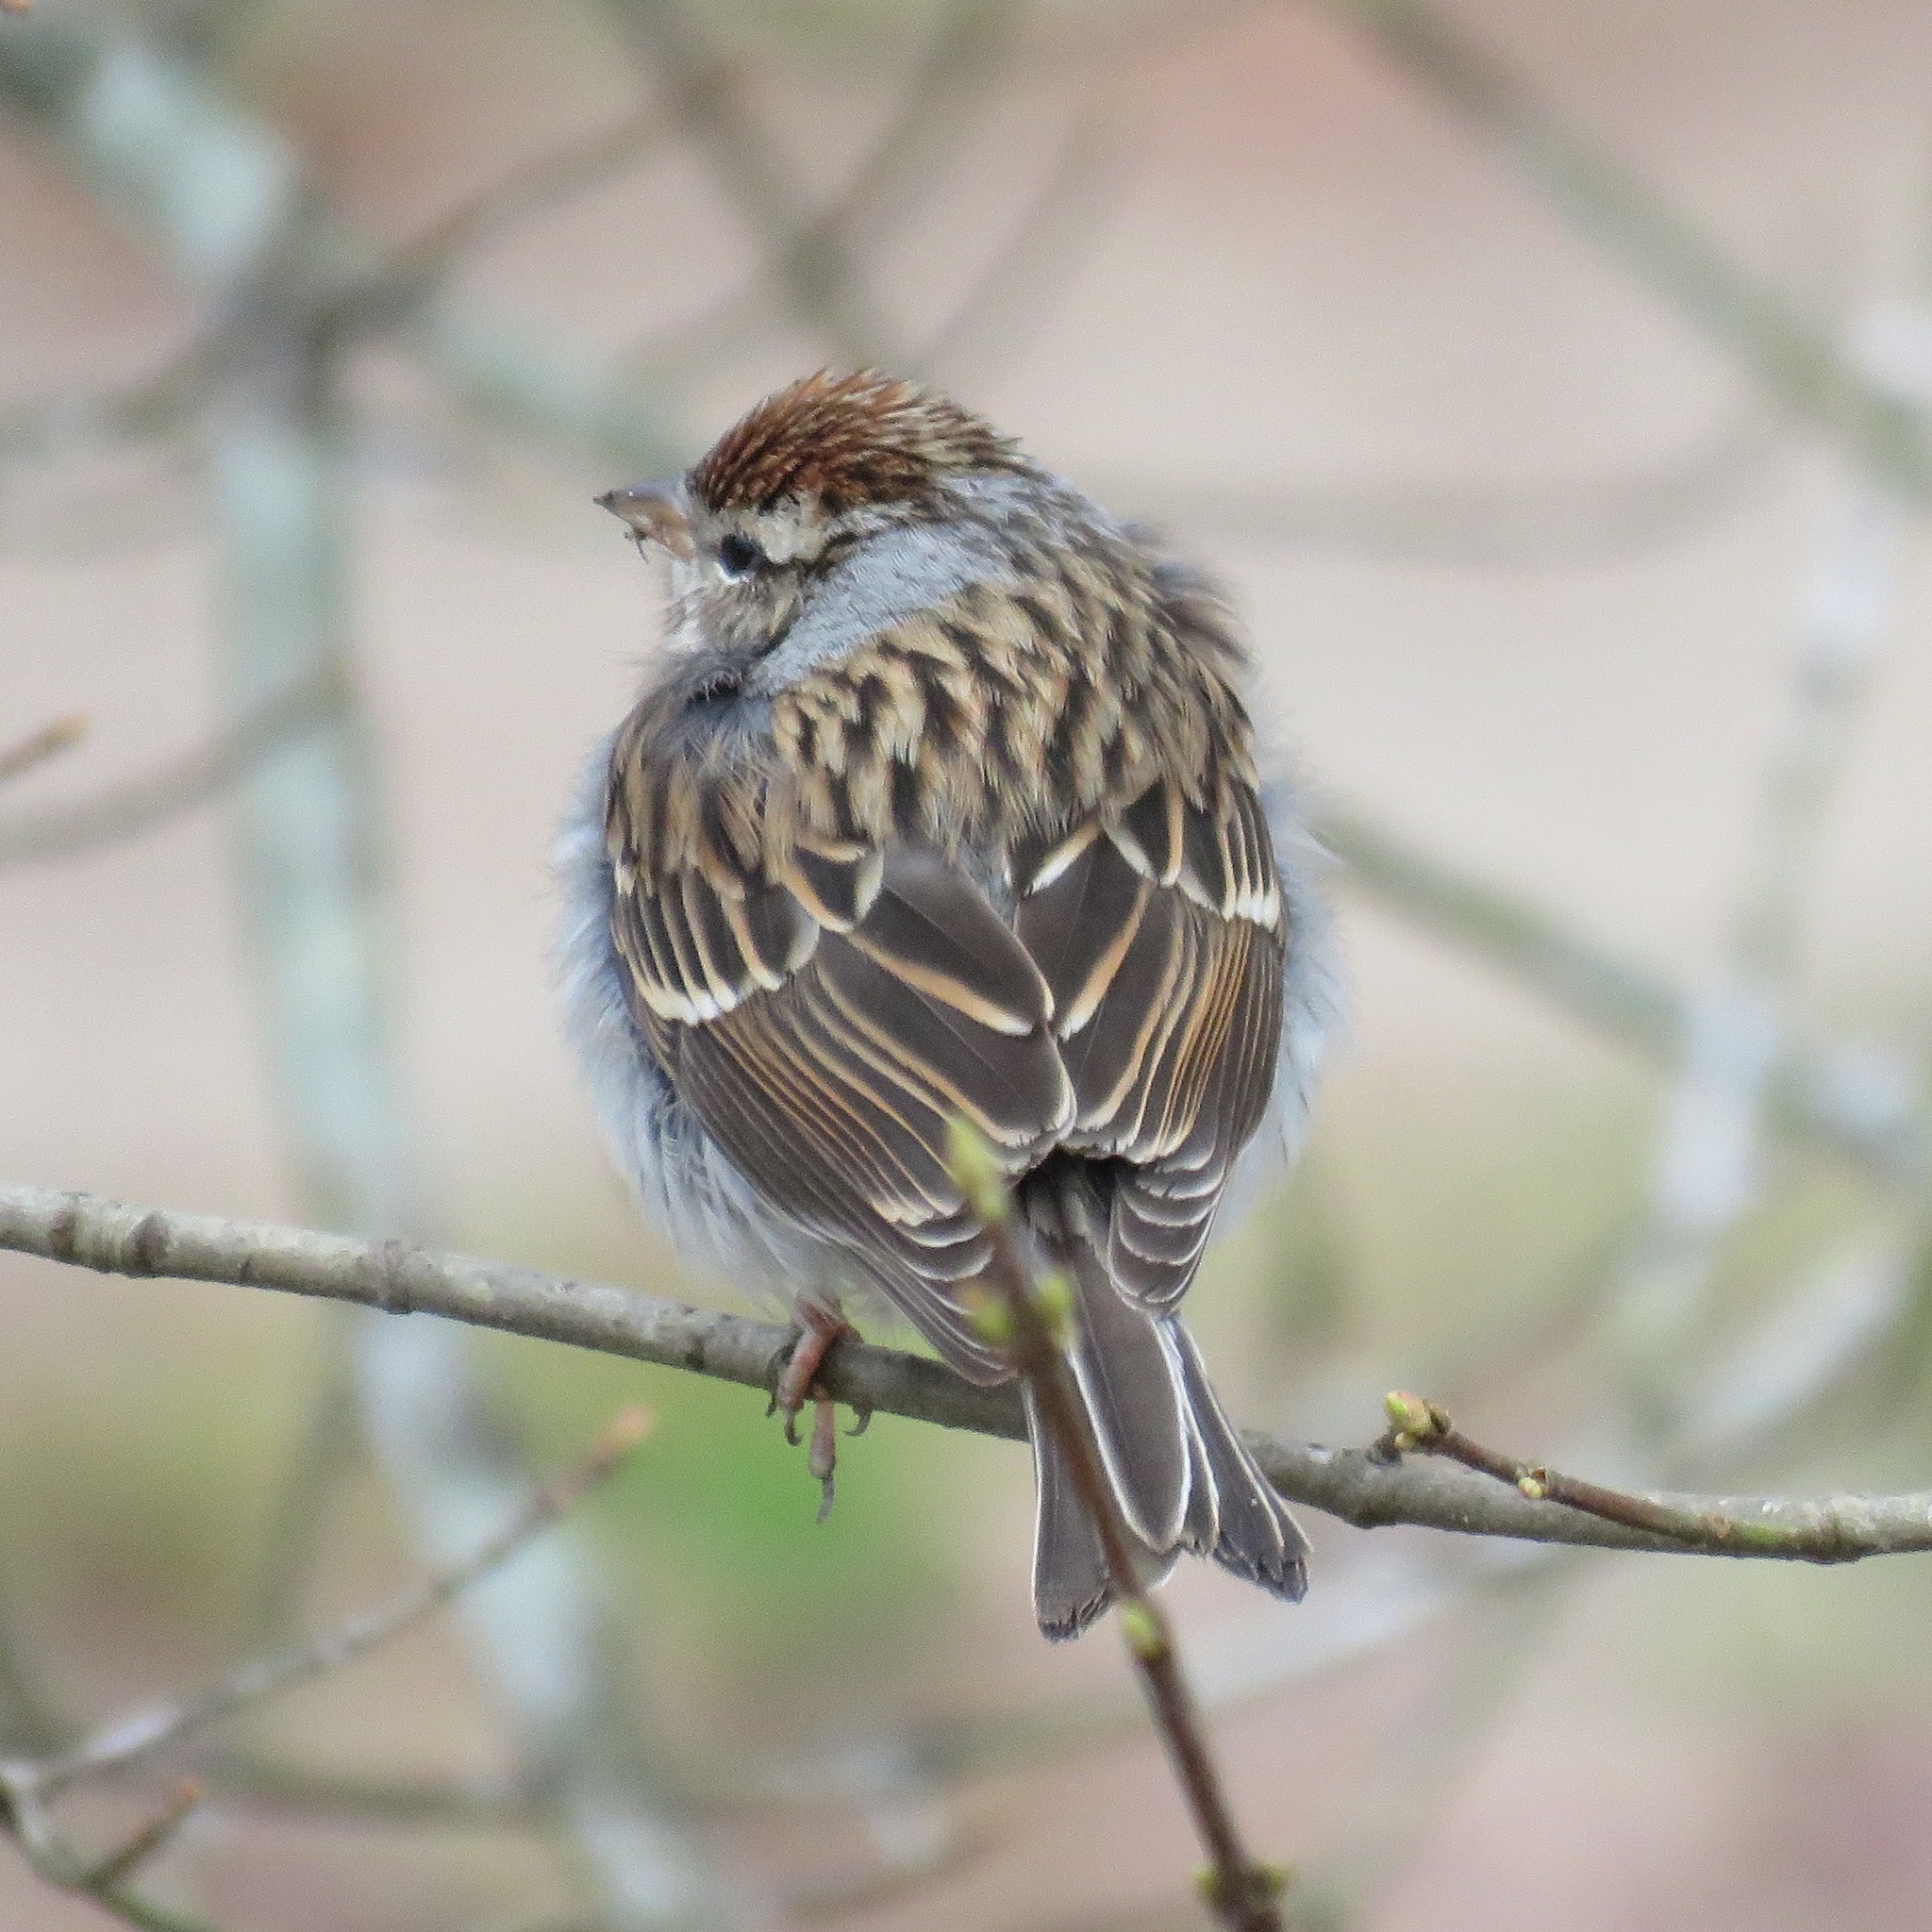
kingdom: Animalia
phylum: Chordata
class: Aves
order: Passeriformes
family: Passerellidae
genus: Spizella
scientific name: Spizella passerina
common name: Chipping sparrow
